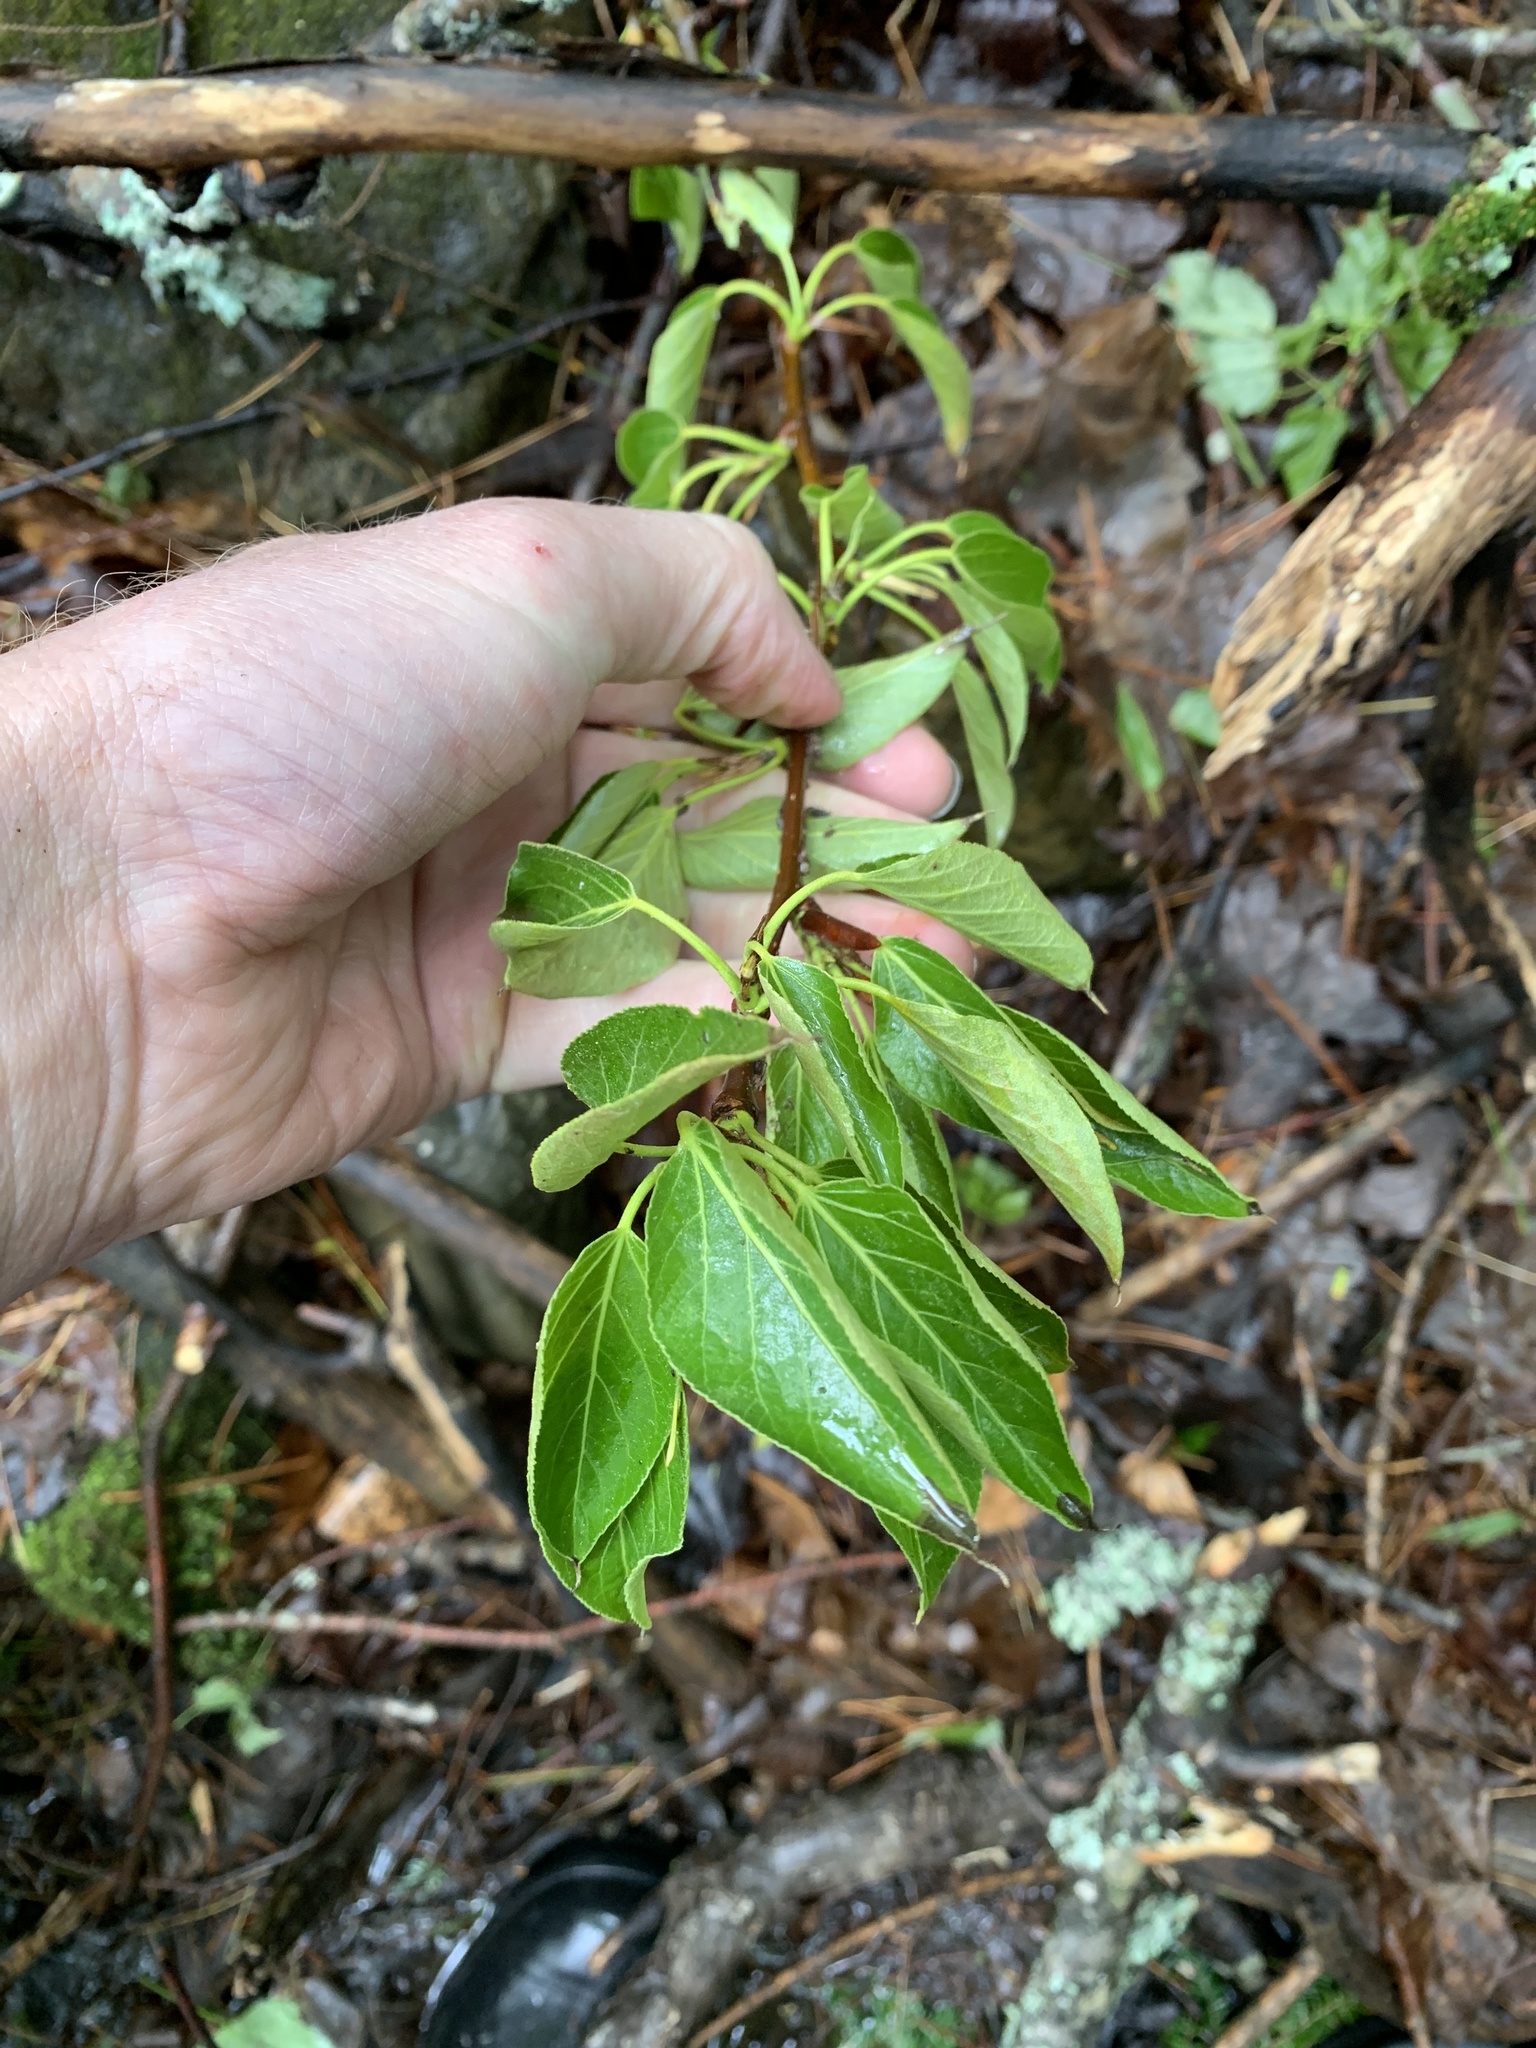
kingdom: Plantae
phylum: Tracheophyta
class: Magnoliopsida
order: Malpighiales
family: Salicaceae
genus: Populus
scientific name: Populus balsamifera
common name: Balsam poplar
